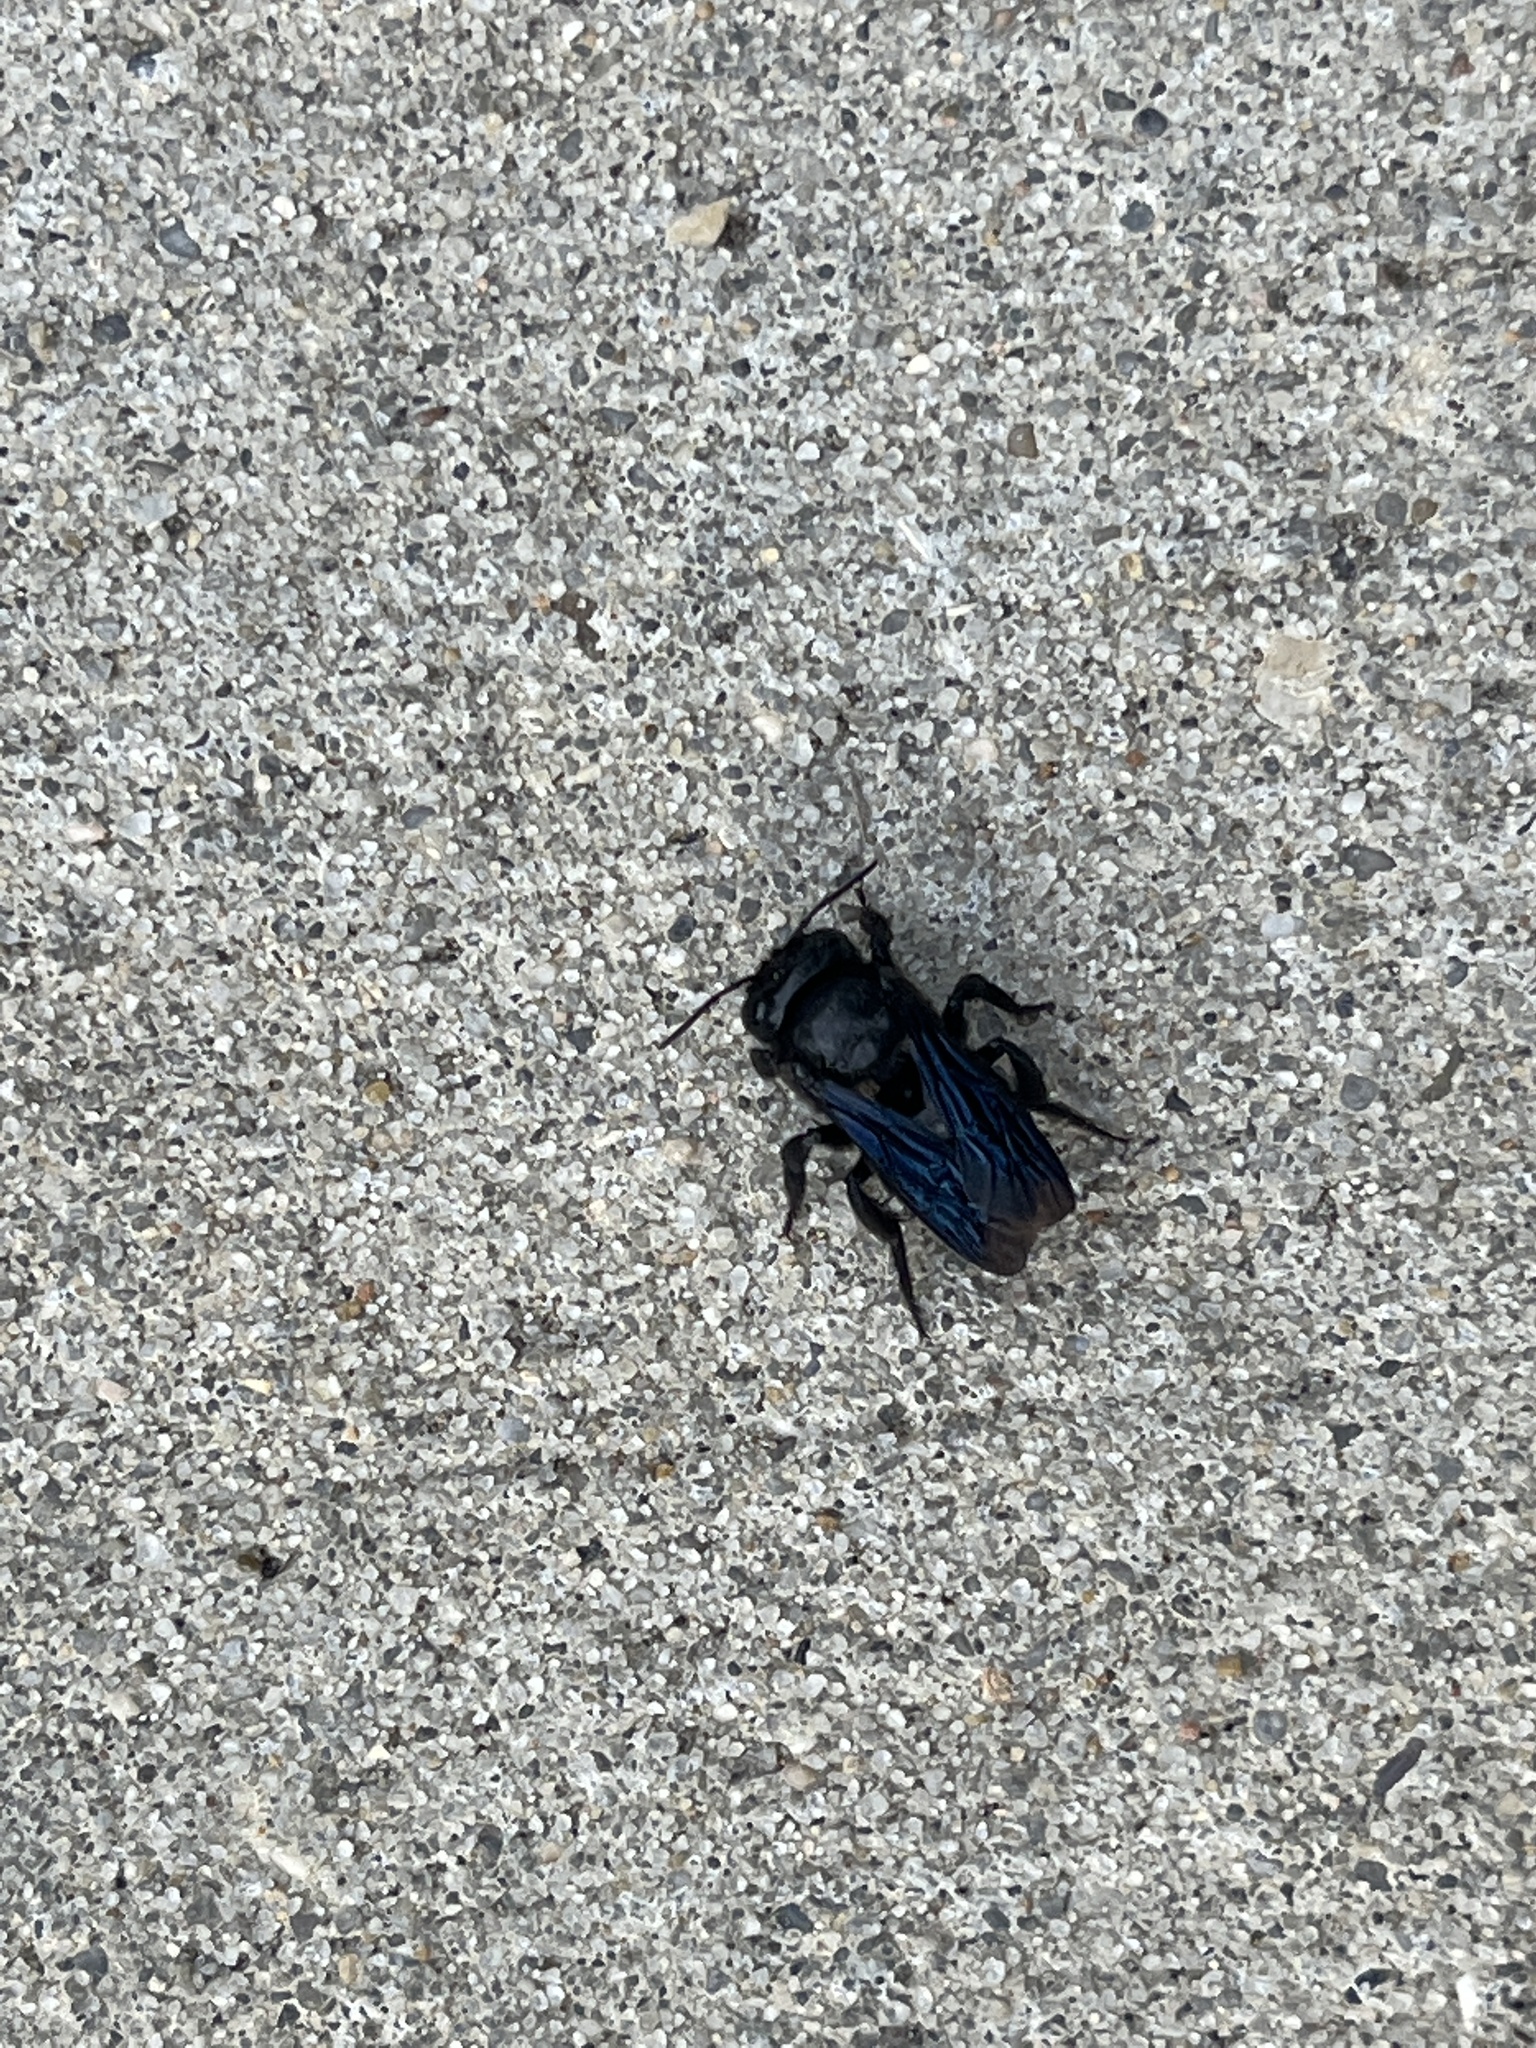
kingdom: Animalia
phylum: Arthropoda
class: Insecta
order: Hymenoptera
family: Megachilidae
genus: Megachile
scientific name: Megachile xylocopoides
